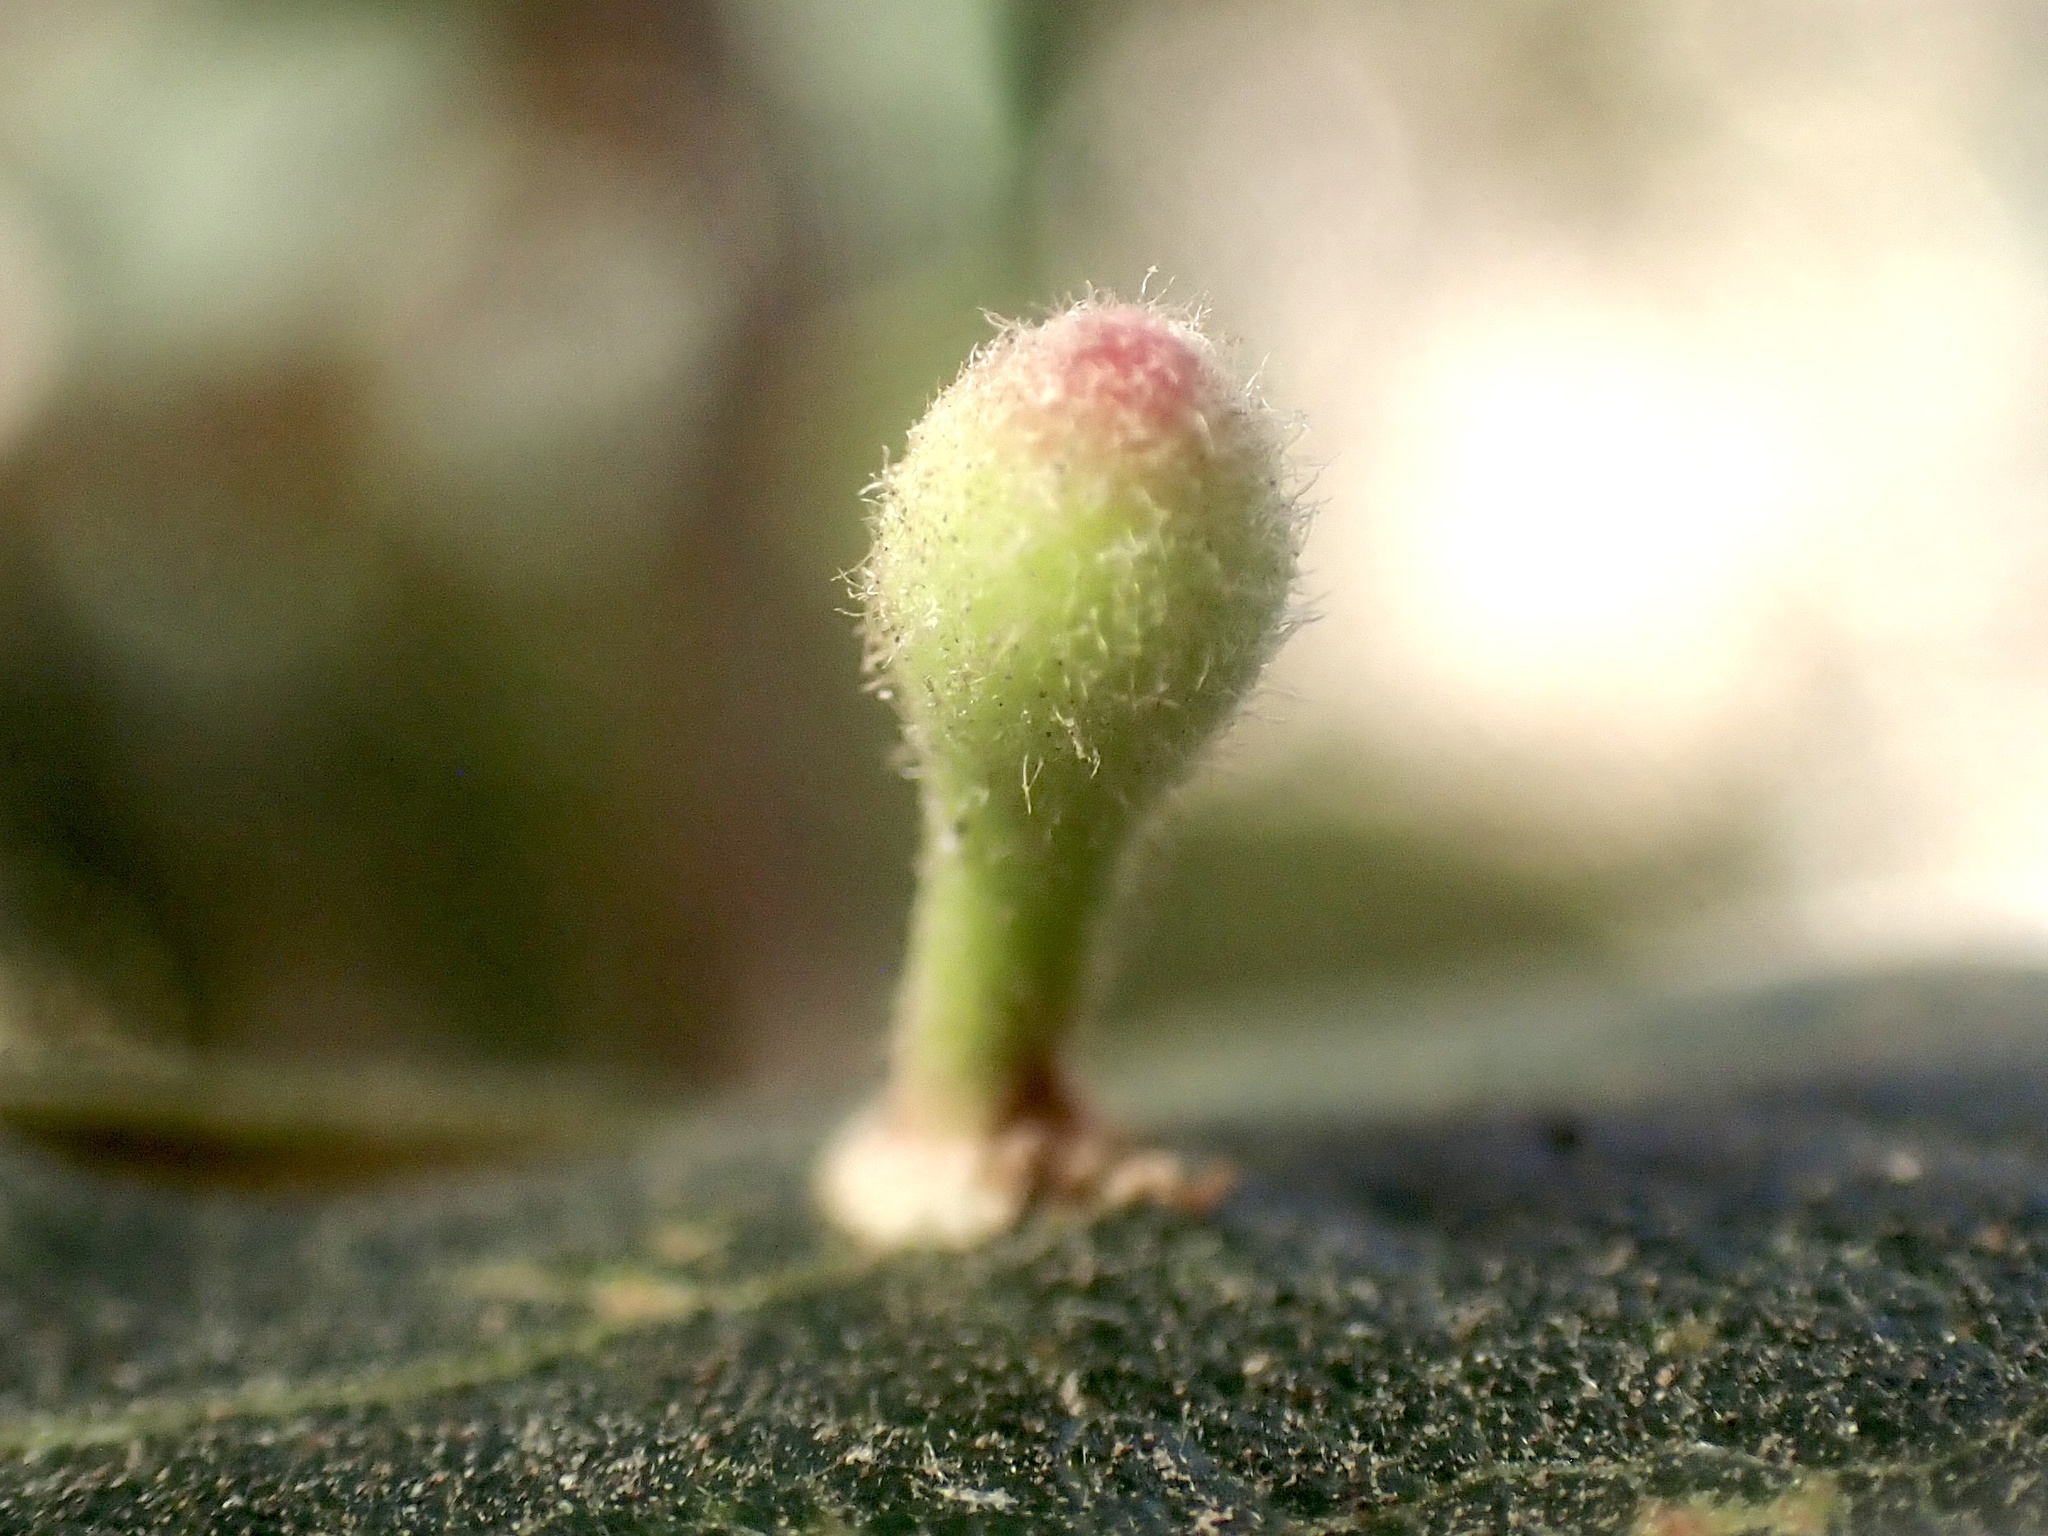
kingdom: Animalia
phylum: Arthropoda
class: Insecta
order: Hymenoptera
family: Cynipidae
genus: Atrusca
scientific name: Atrusca
